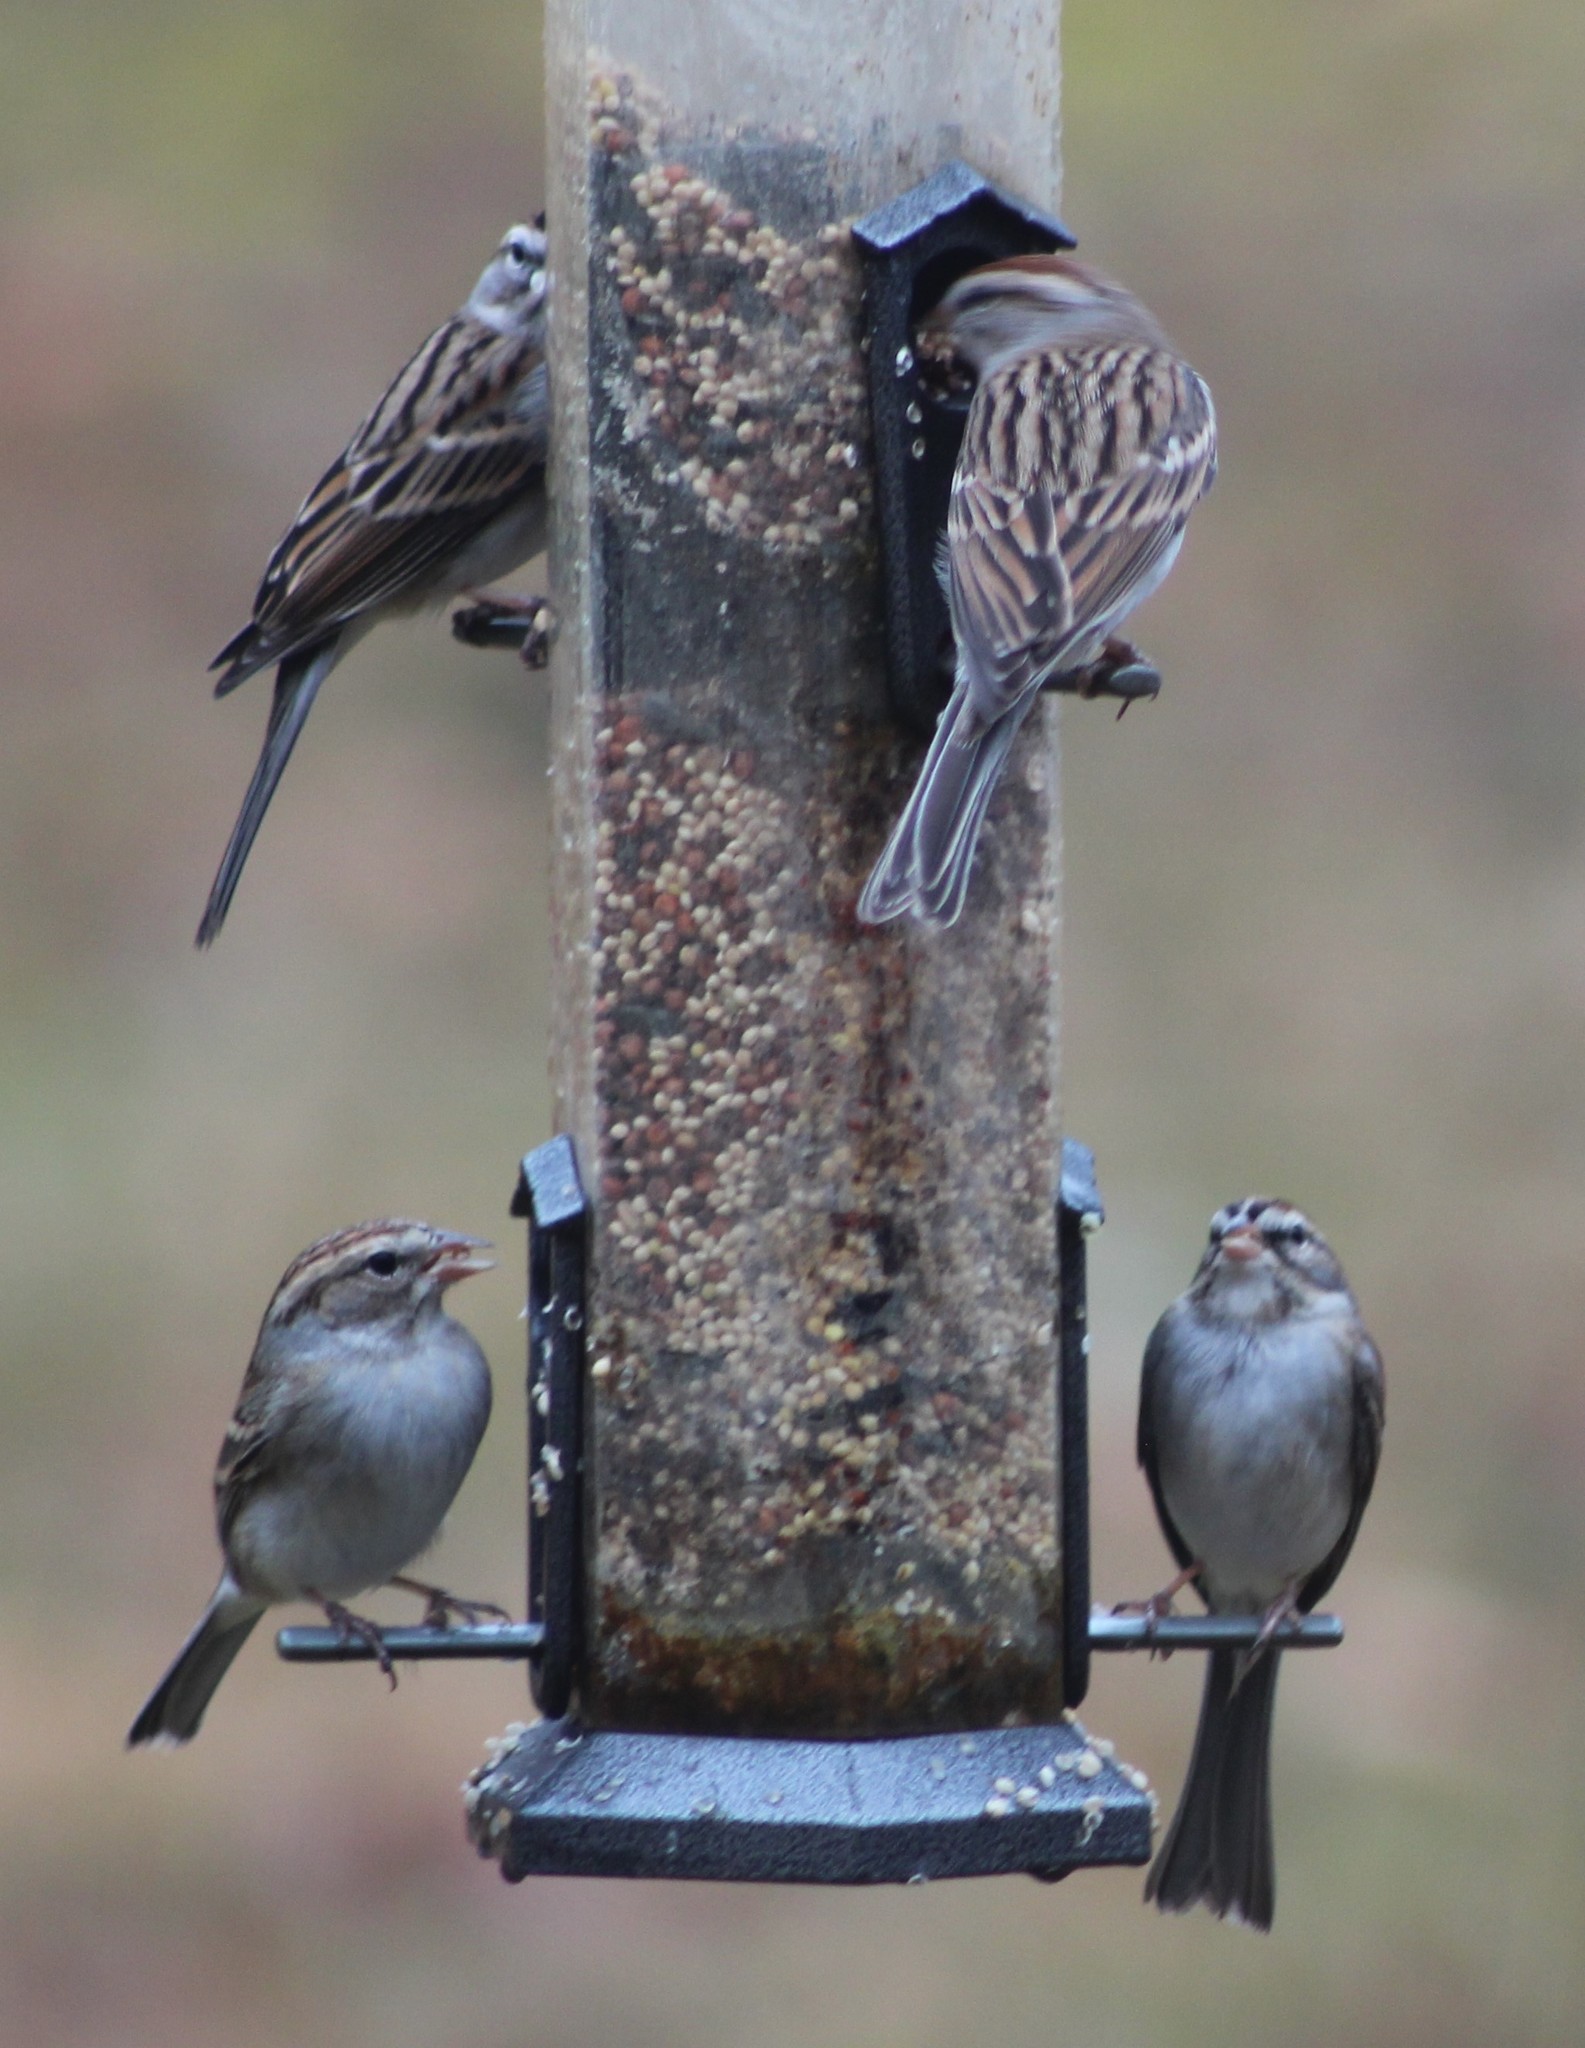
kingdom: Animalia
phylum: Chordata
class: Aves
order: Passeriformes
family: Passerellidae
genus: Spizella
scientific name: Spizella passerina
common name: Chipping sparrow
